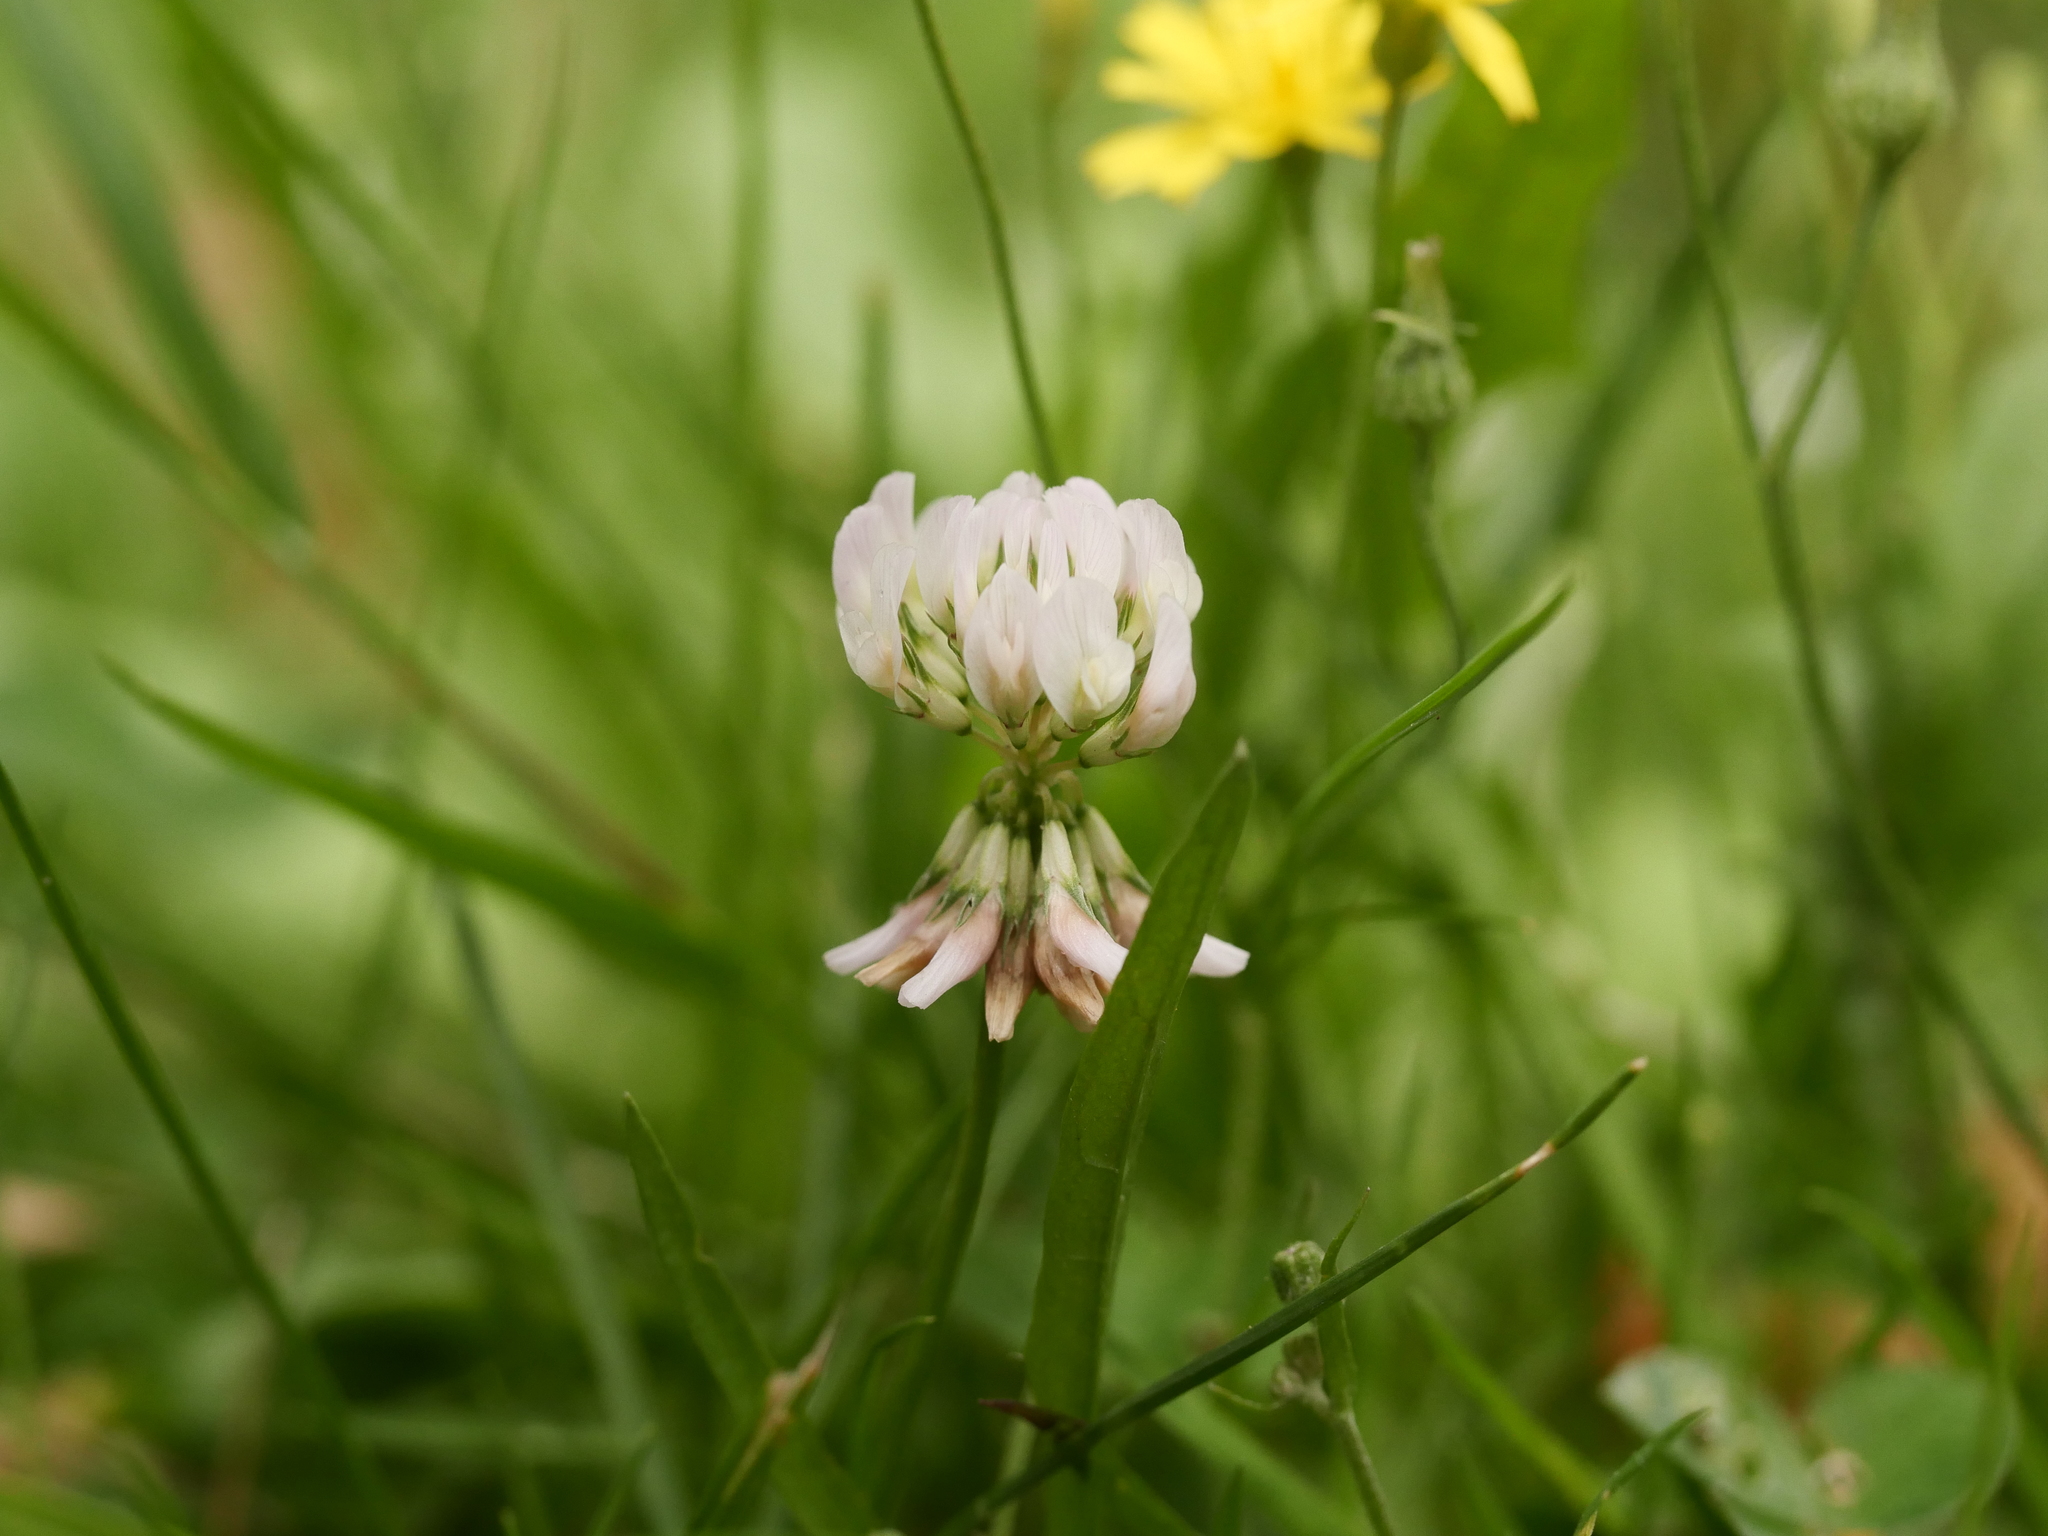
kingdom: Plantae
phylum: Tracheophyta
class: Magnoliopsida
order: Fabales
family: Fabaceae
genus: Trifolium
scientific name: Trifolium repens
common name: White clover
